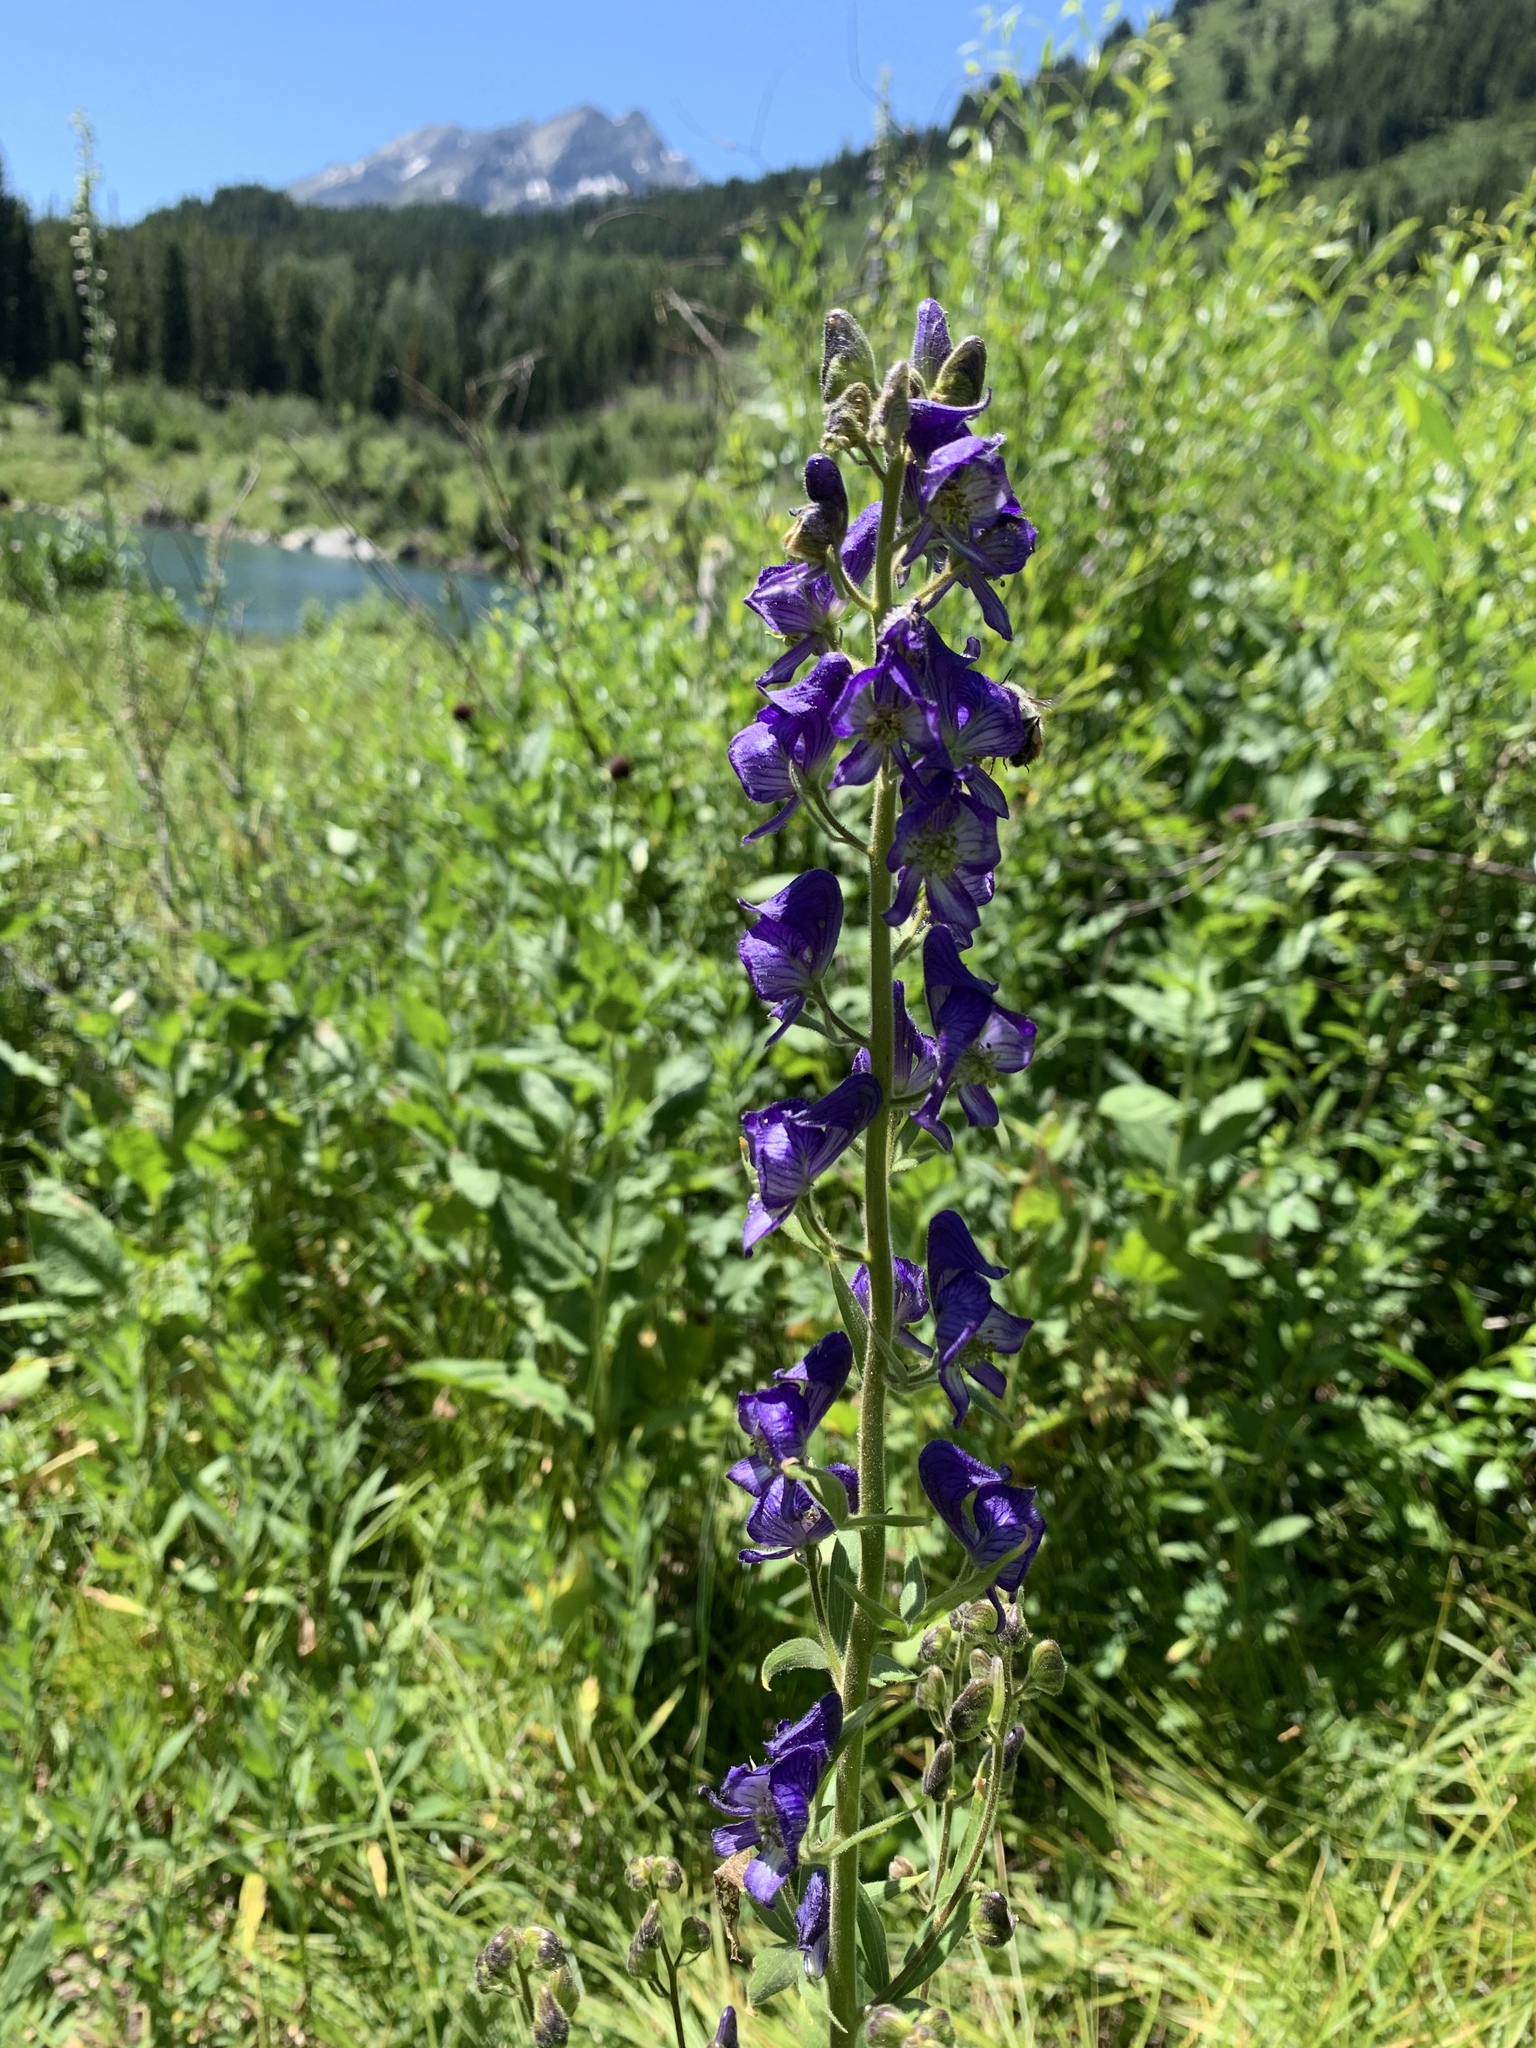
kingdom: Plantae
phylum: Tracheophyta
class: Magnoliopsida
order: Ranunculales
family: Ranunculaceae
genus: Aconitum
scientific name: Aconitum columbianum
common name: Columbia aconite
